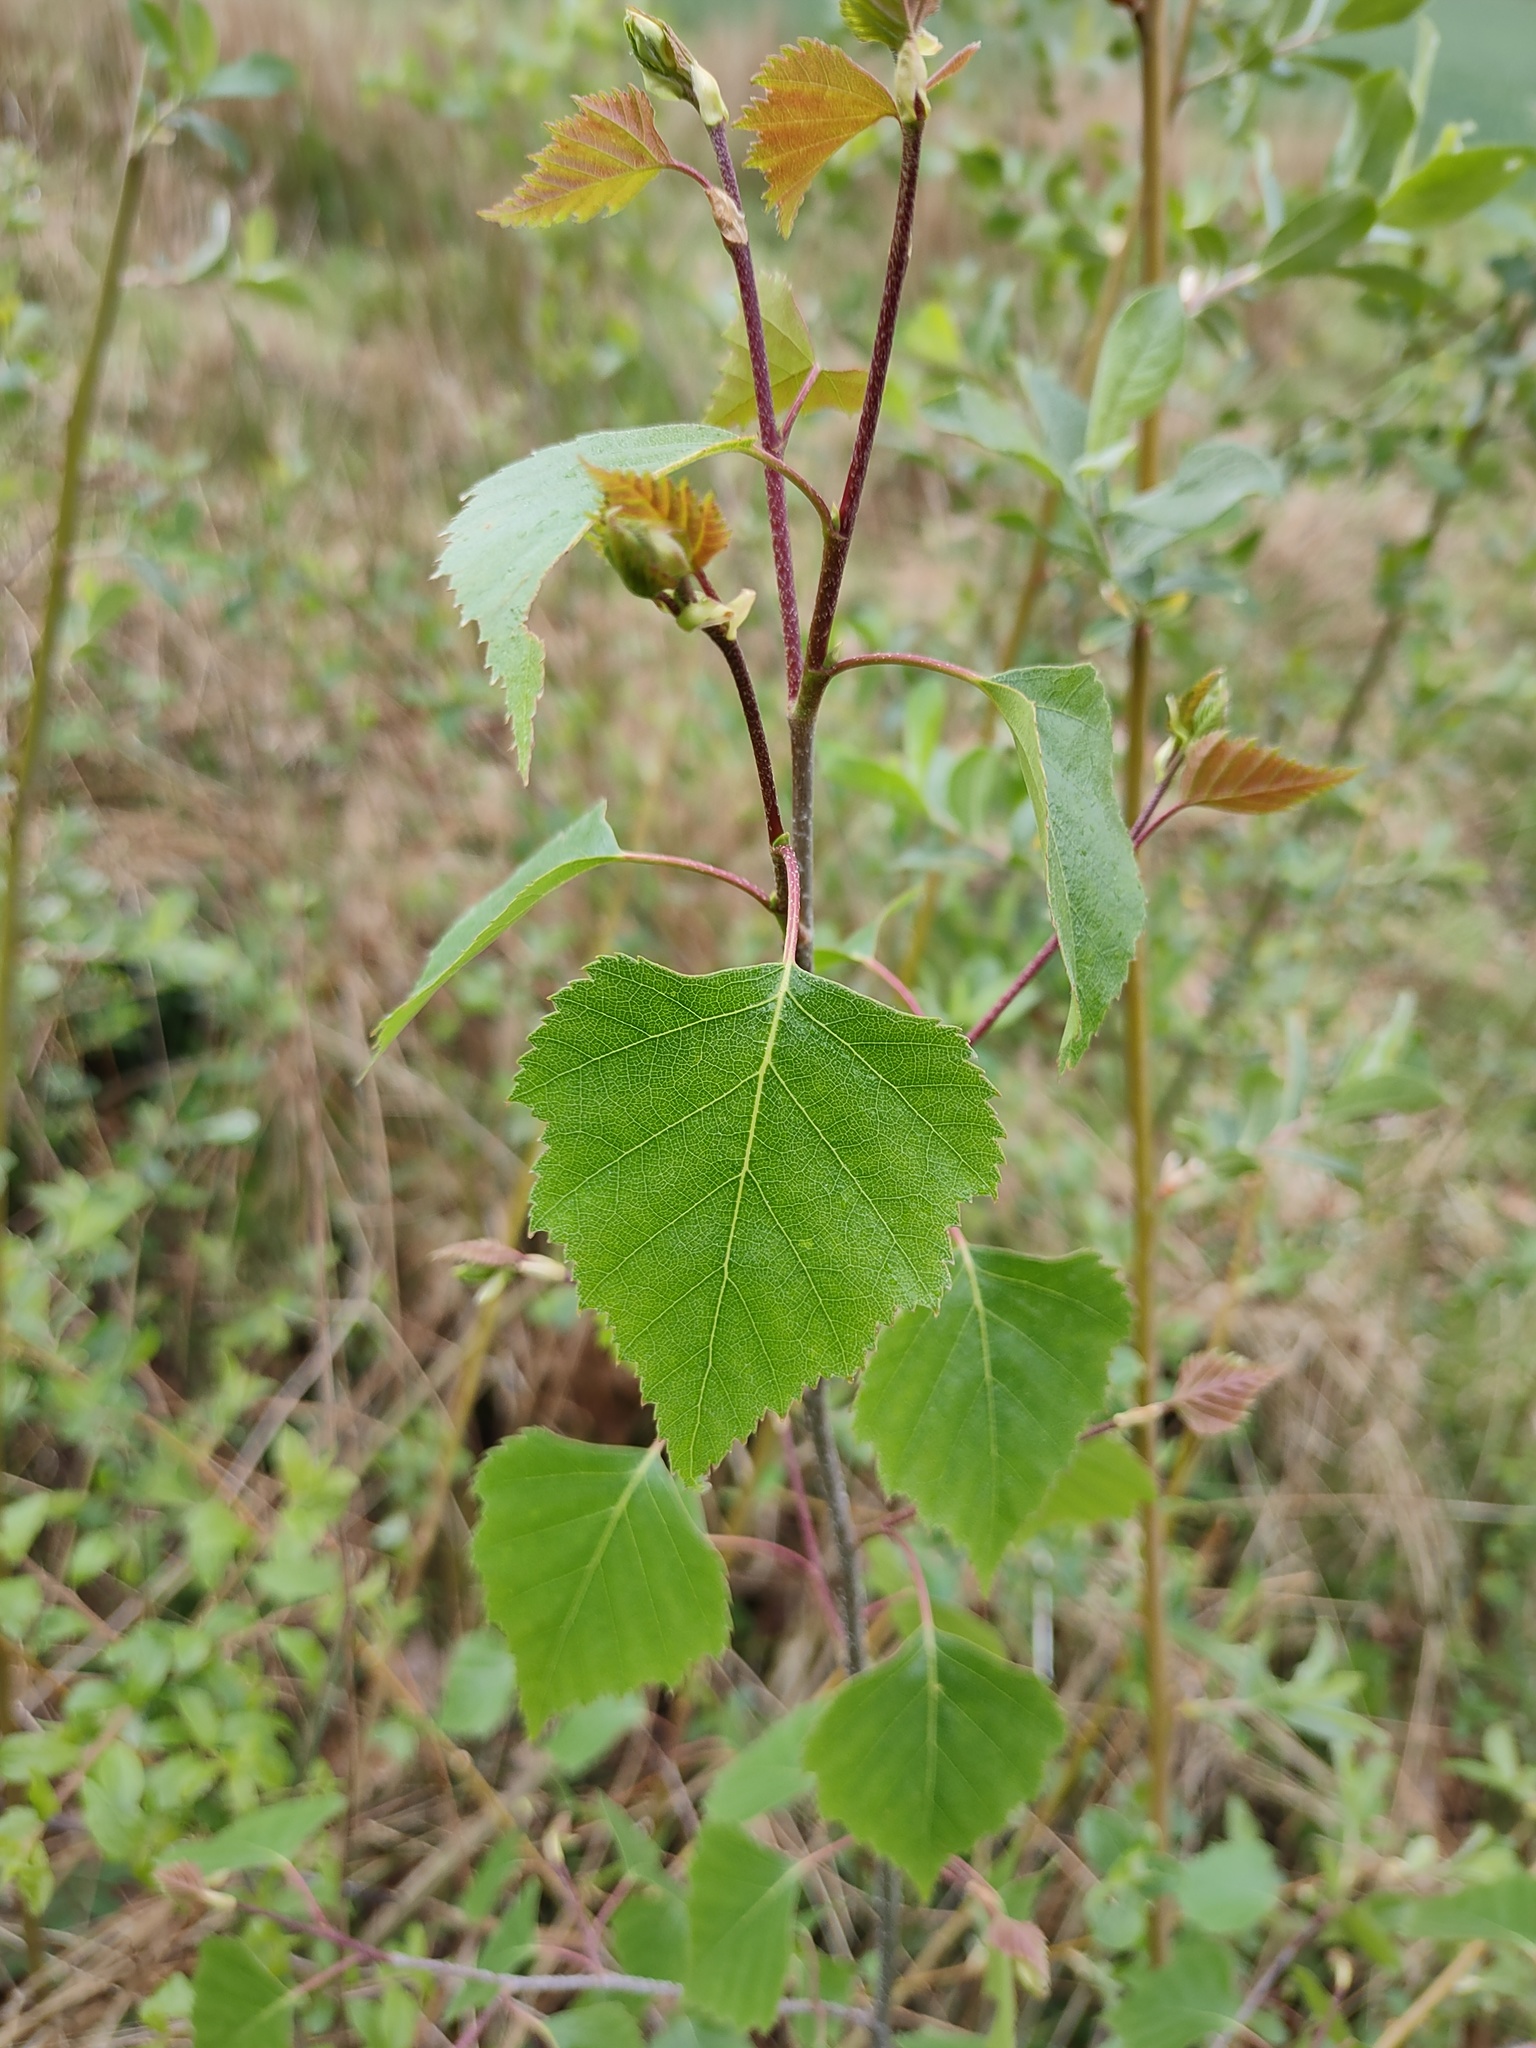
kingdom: Plantae
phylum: Tracheophyta
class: Magnoliopsida
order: Fagales
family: Betulaceae
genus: Betula
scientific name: Betula pendula
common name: Silver birch
